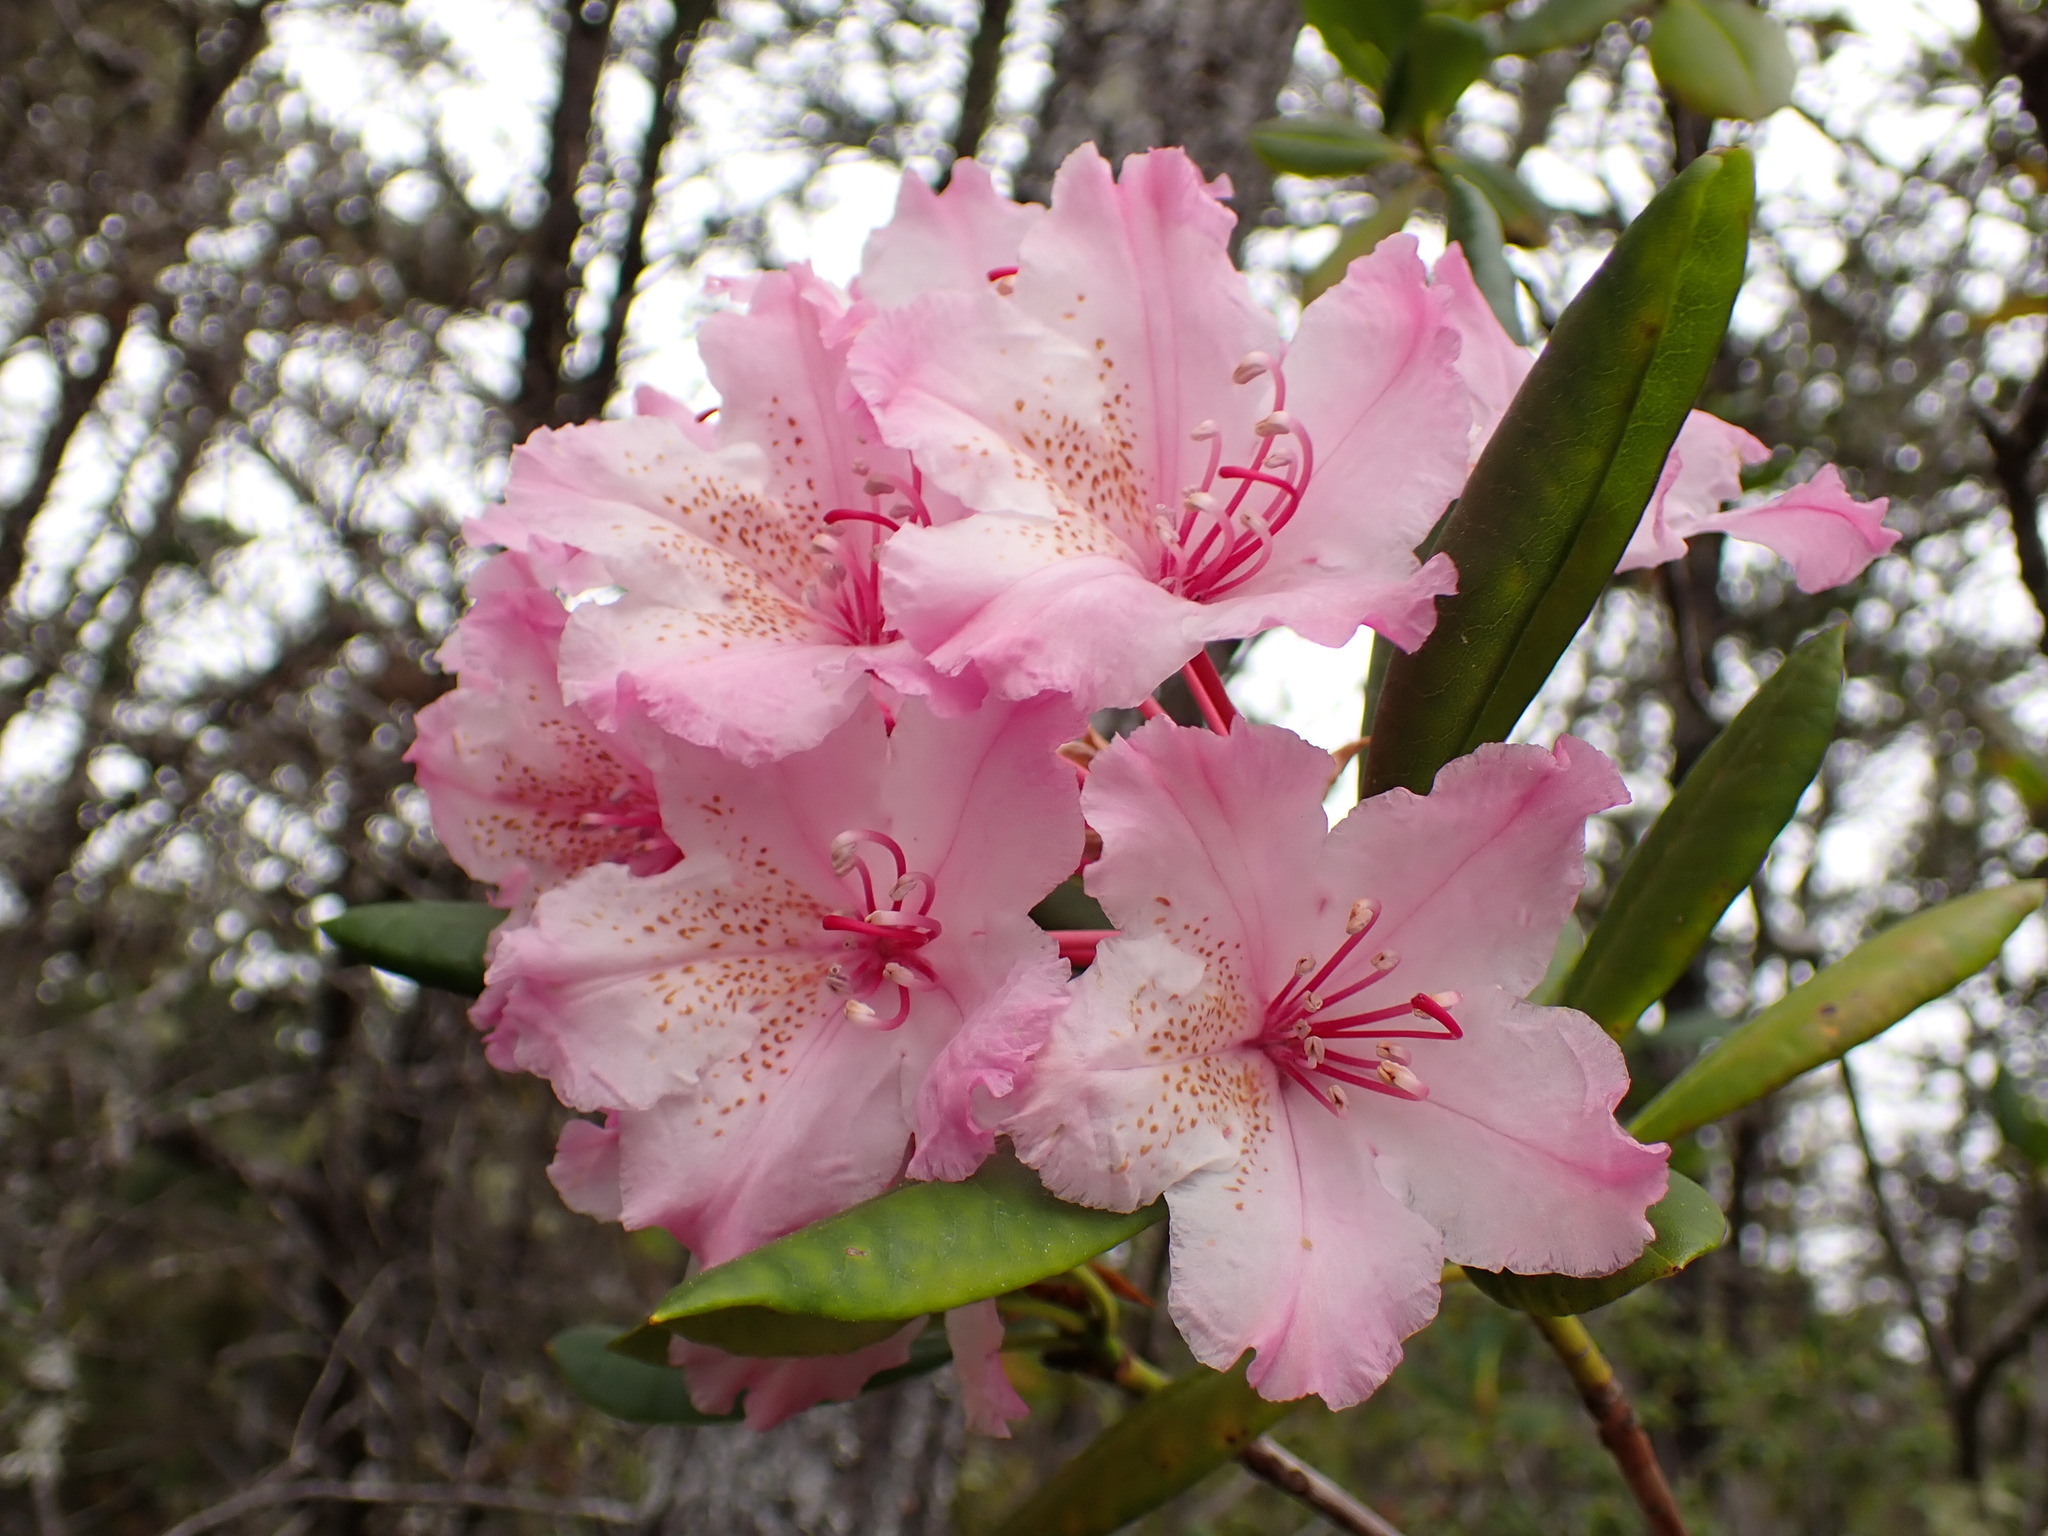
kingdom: Plantae
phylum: Tracheophyta
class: Magnoliopsida
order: Ericales
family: Ericaceae
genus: Rhododendron
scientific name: Rhododendron macrophyllum
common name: California rose bay
